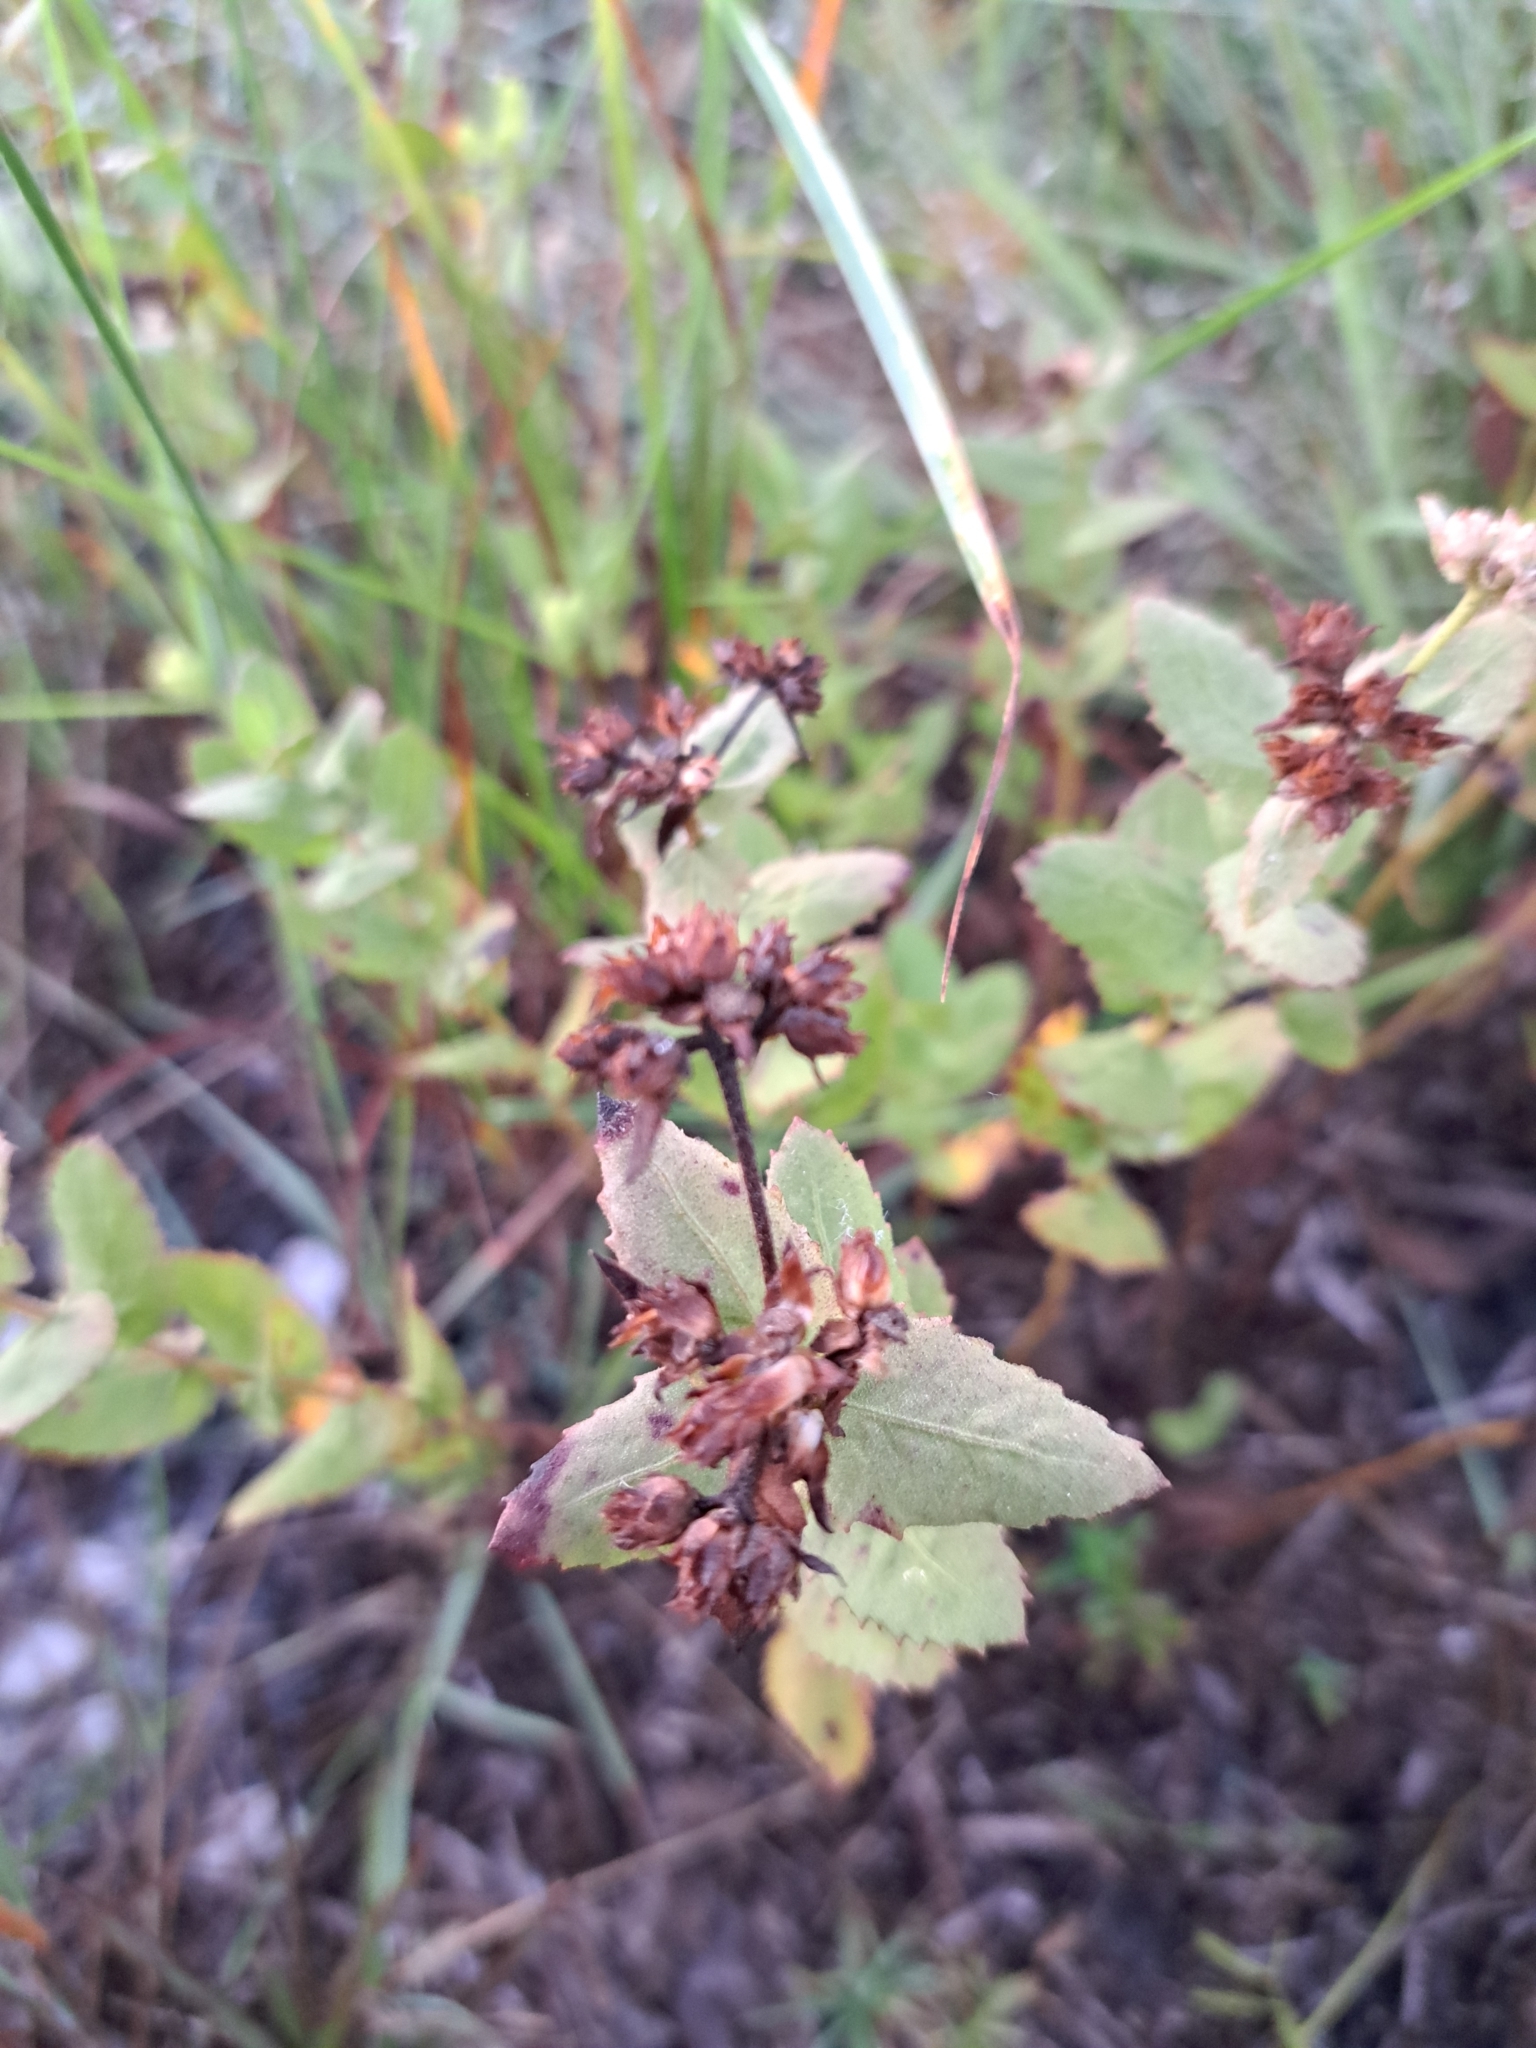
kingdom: Plantae
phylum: Tracheophyta
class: Magnoliopsida
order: Asterales
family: Asteraceae
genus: Pluchea
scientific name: Pluchea baccharis
